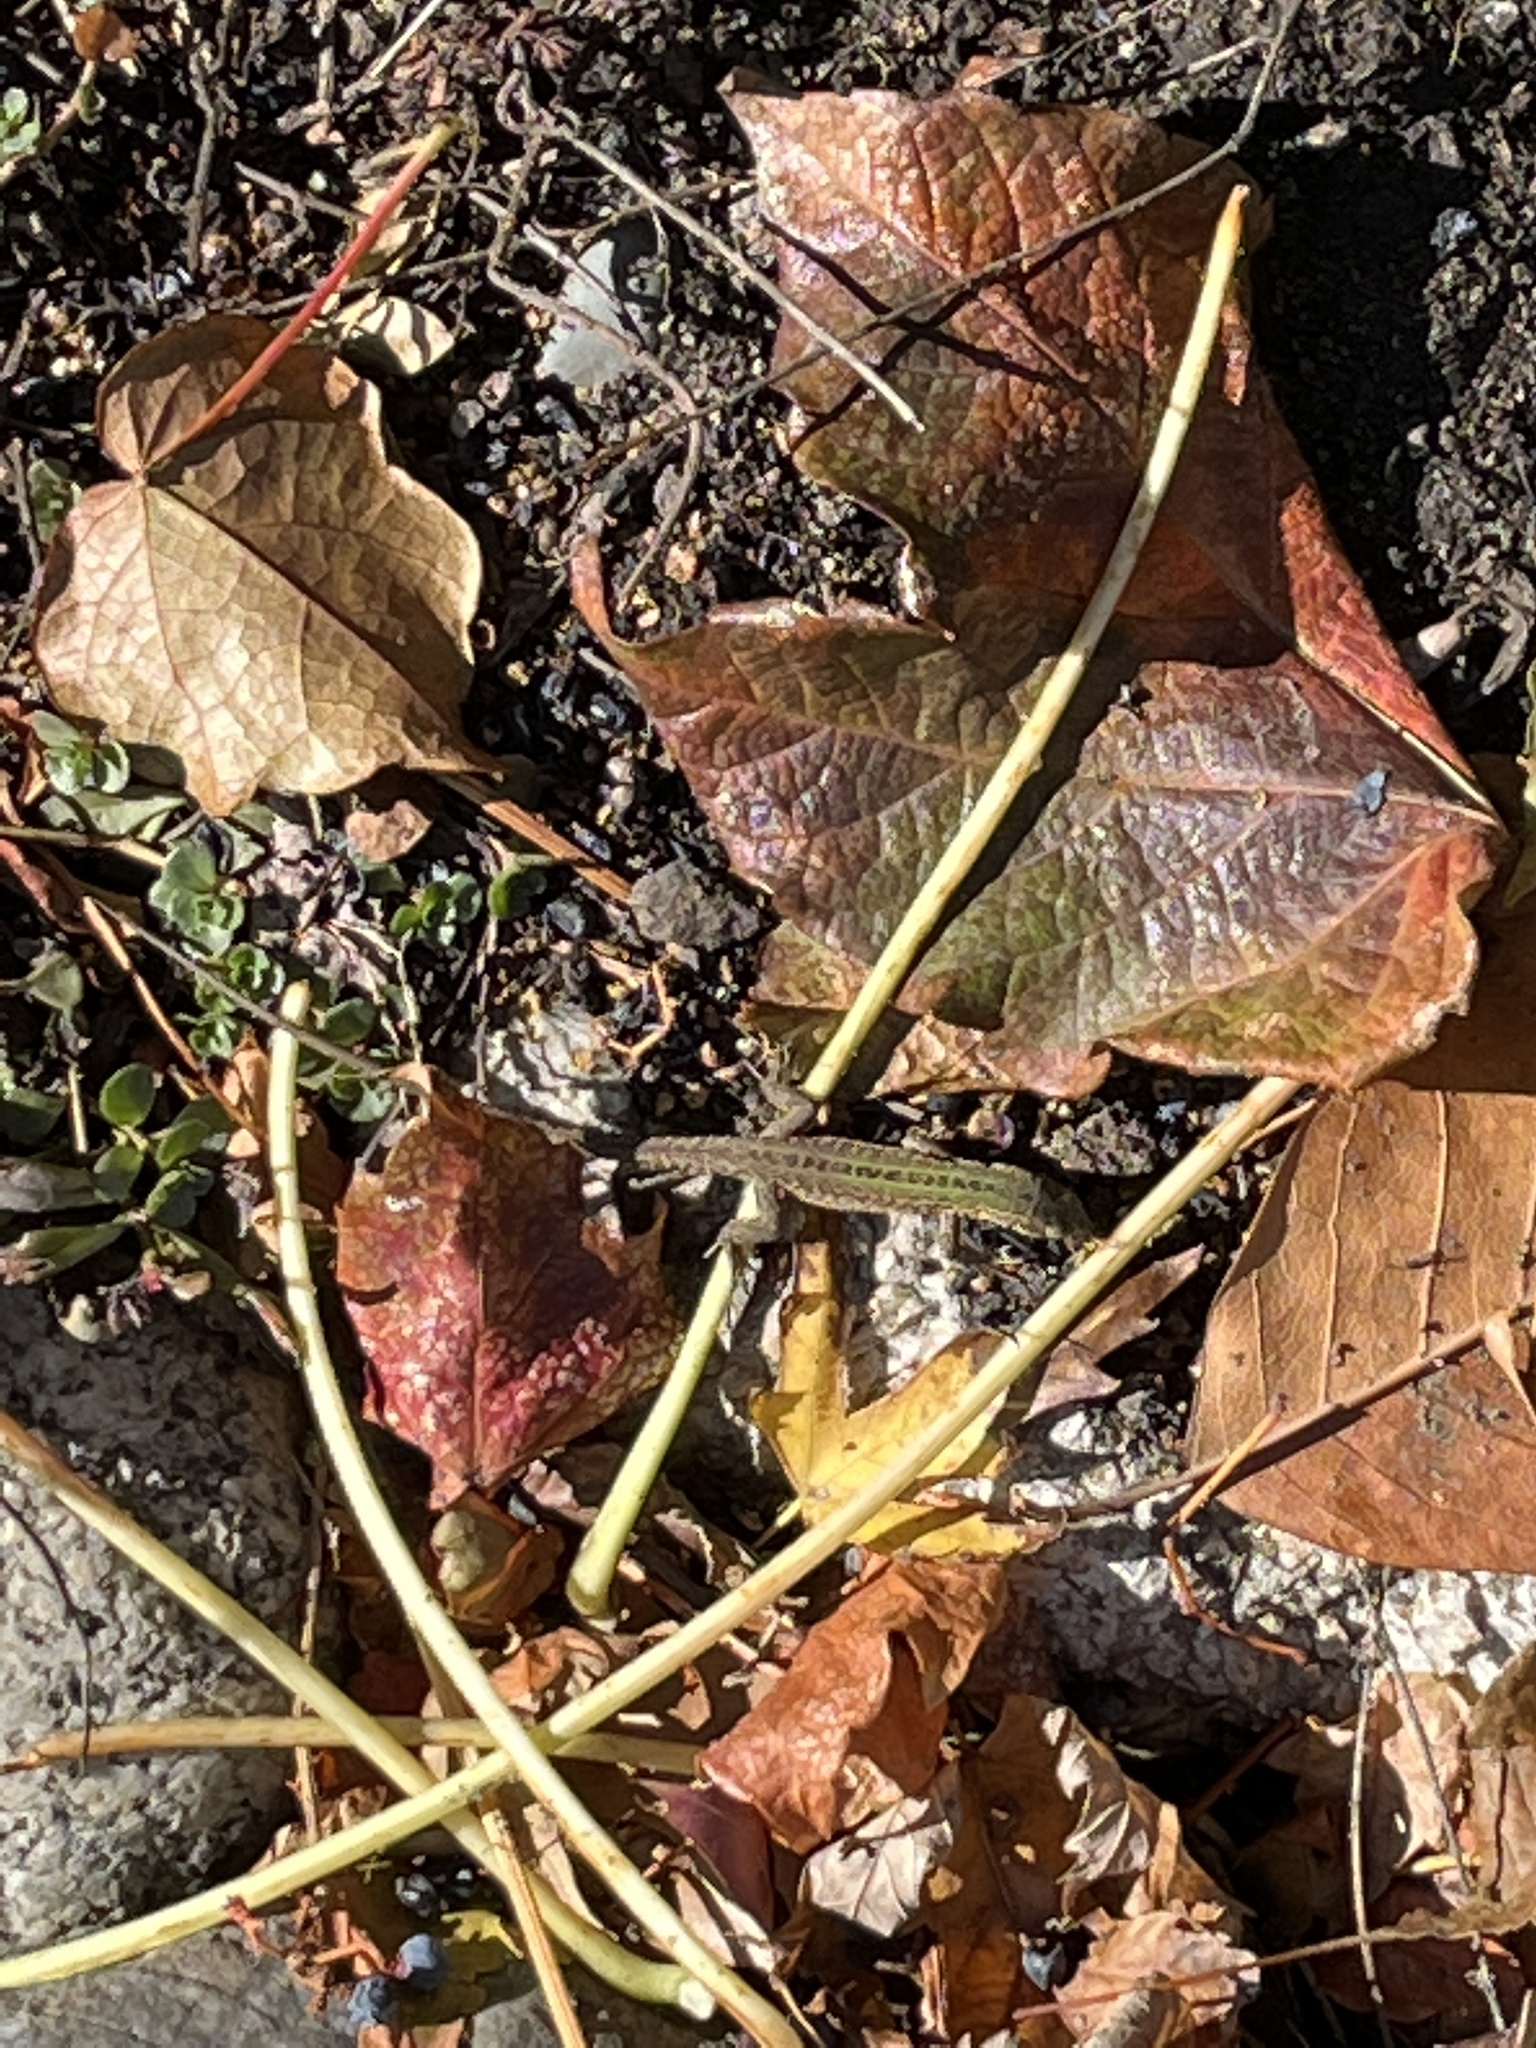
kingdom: Animalia
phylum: Chordata
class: Squamata
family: Lacertidae
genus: Podarcis
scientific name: Podarcis siculus
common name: Italian wall lizard
